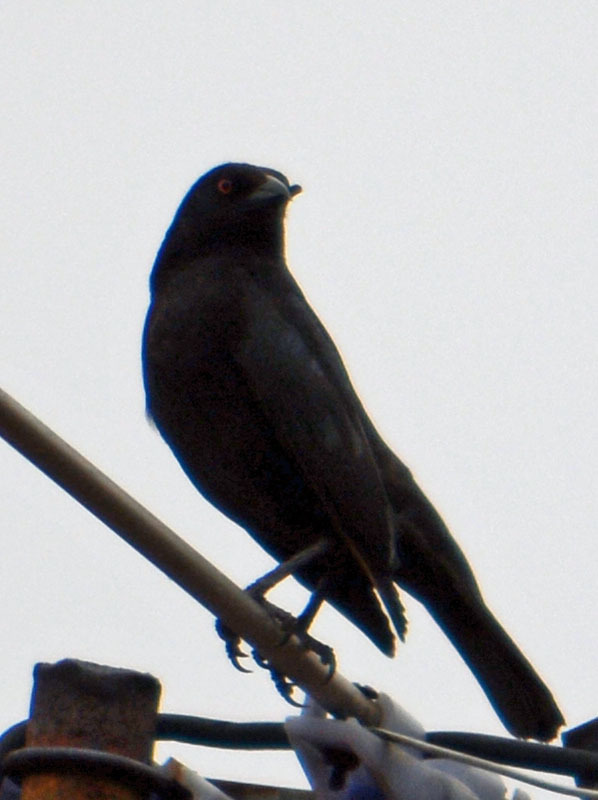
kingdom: Animalia
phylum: Chordata
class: Aves
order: Passeriformes
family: Icteridae
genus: Molothrus
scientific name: Molothrus aeneus
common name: Bronzed cowbird
